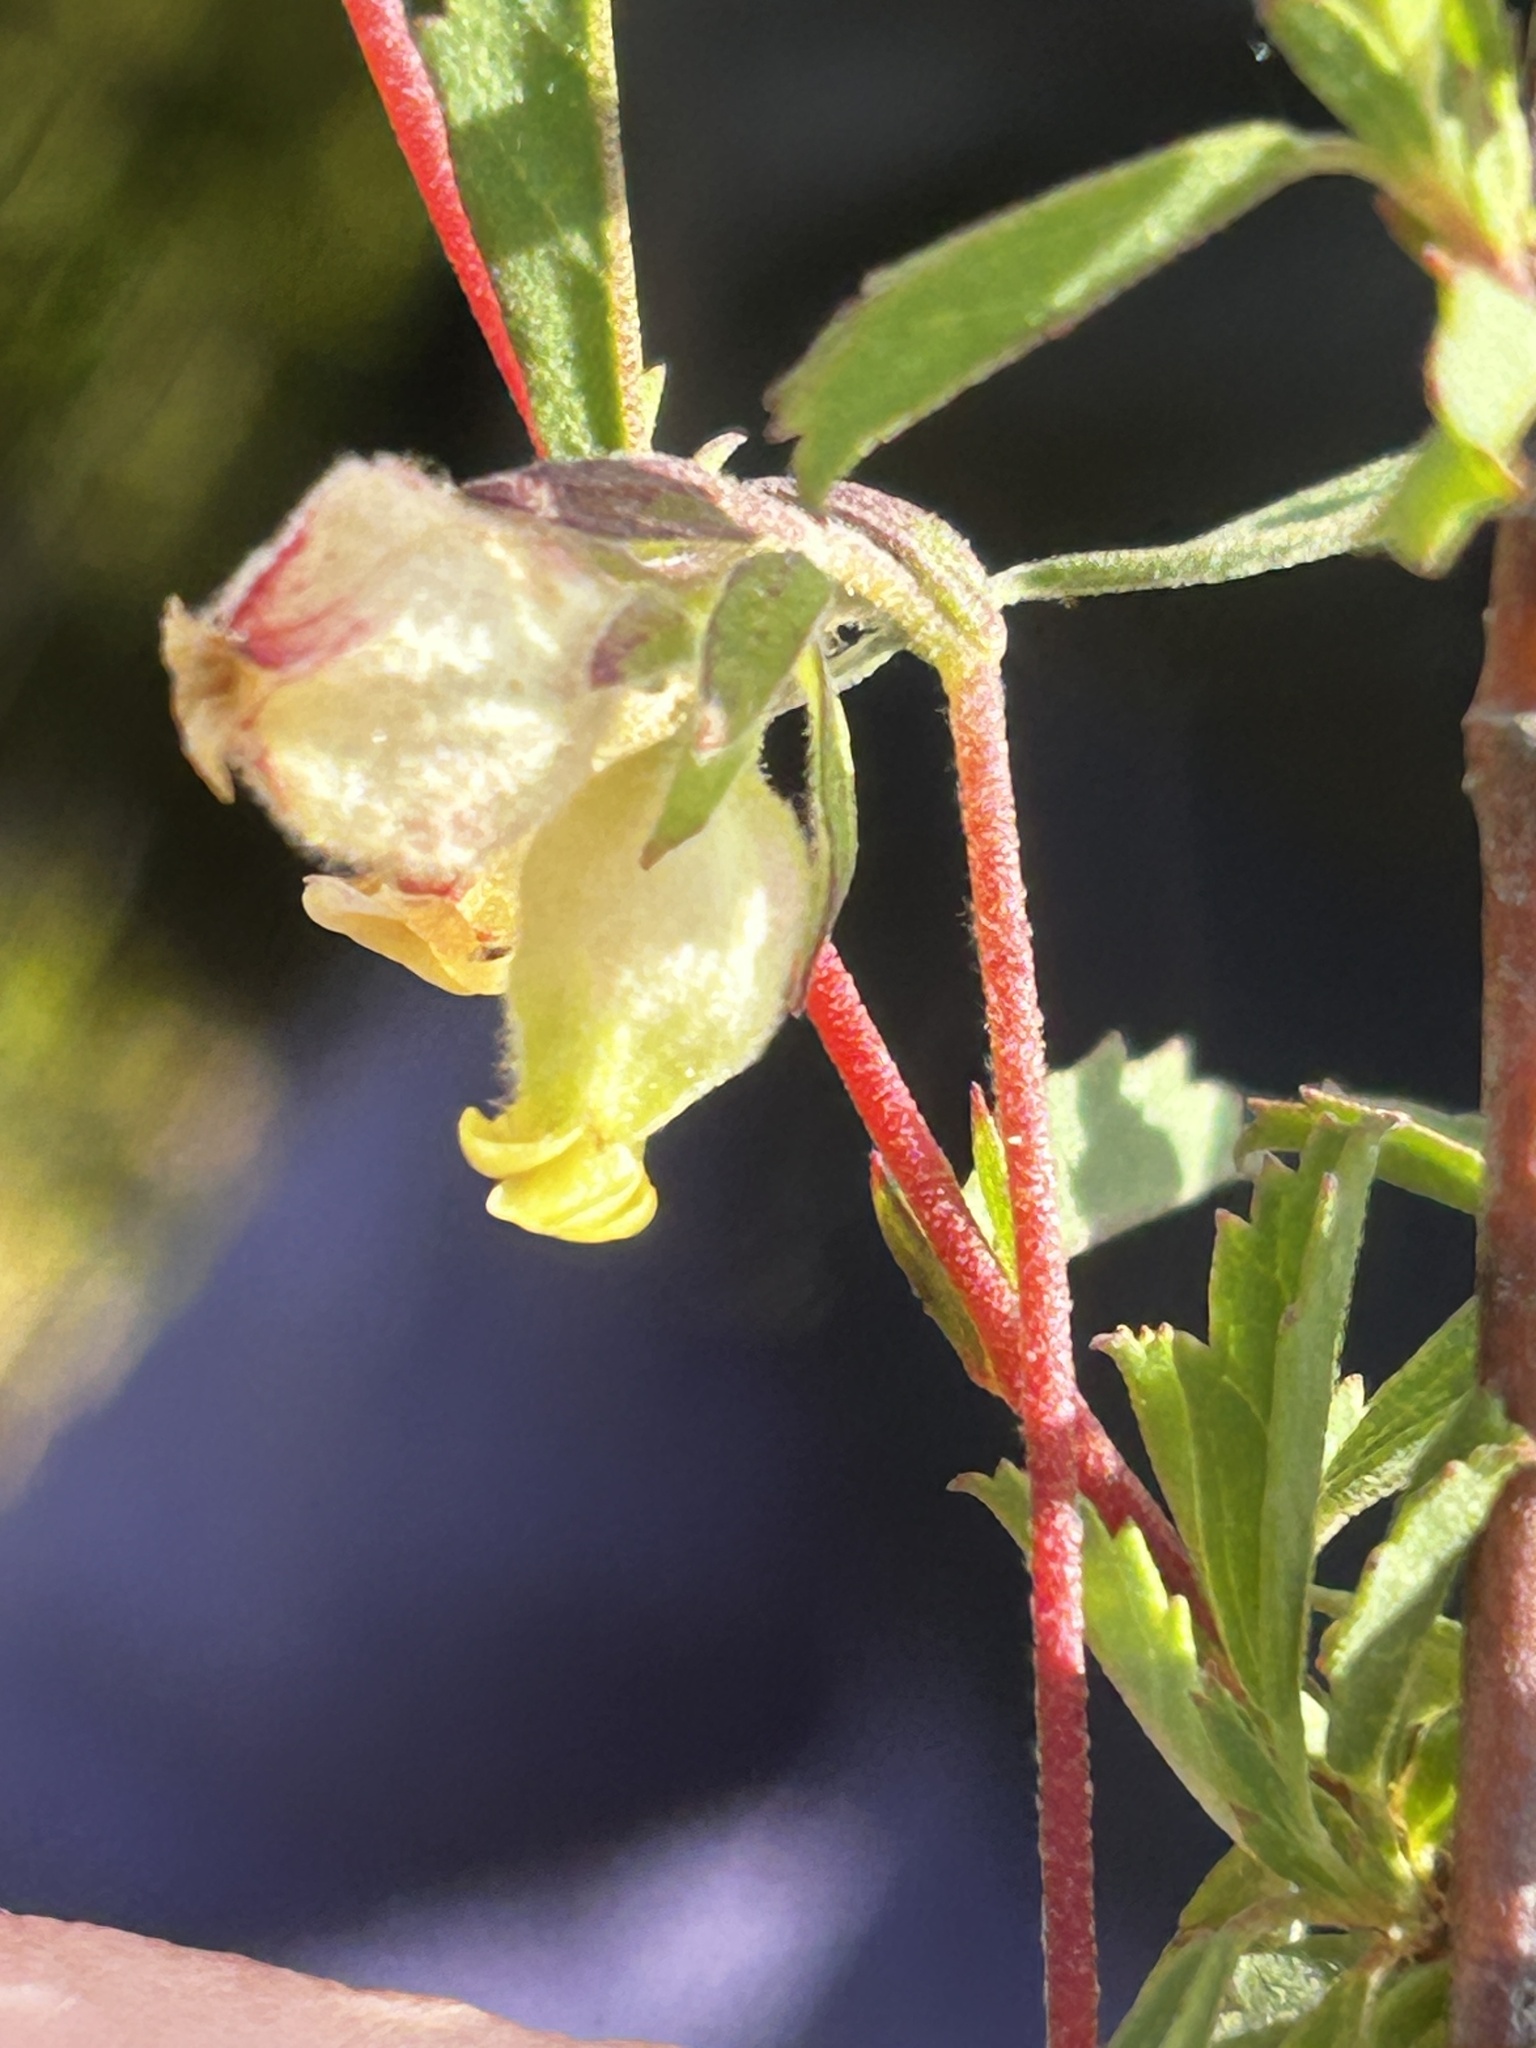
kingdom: Plantae
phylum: Tracheophyta
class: Magnoliopsida
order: Malvales
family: Malvaceae
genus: Hermannia
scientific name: Hermannia hyssopifolia
